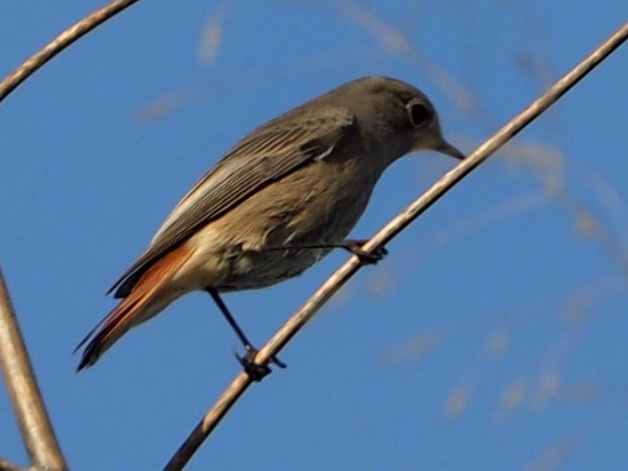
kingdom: Animalia
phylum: Chordata
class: Aves
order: Passeriformes
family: Muscicapidae
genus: Phoenicurus
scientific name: Phoenicurus ochruros
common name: Black redstart
